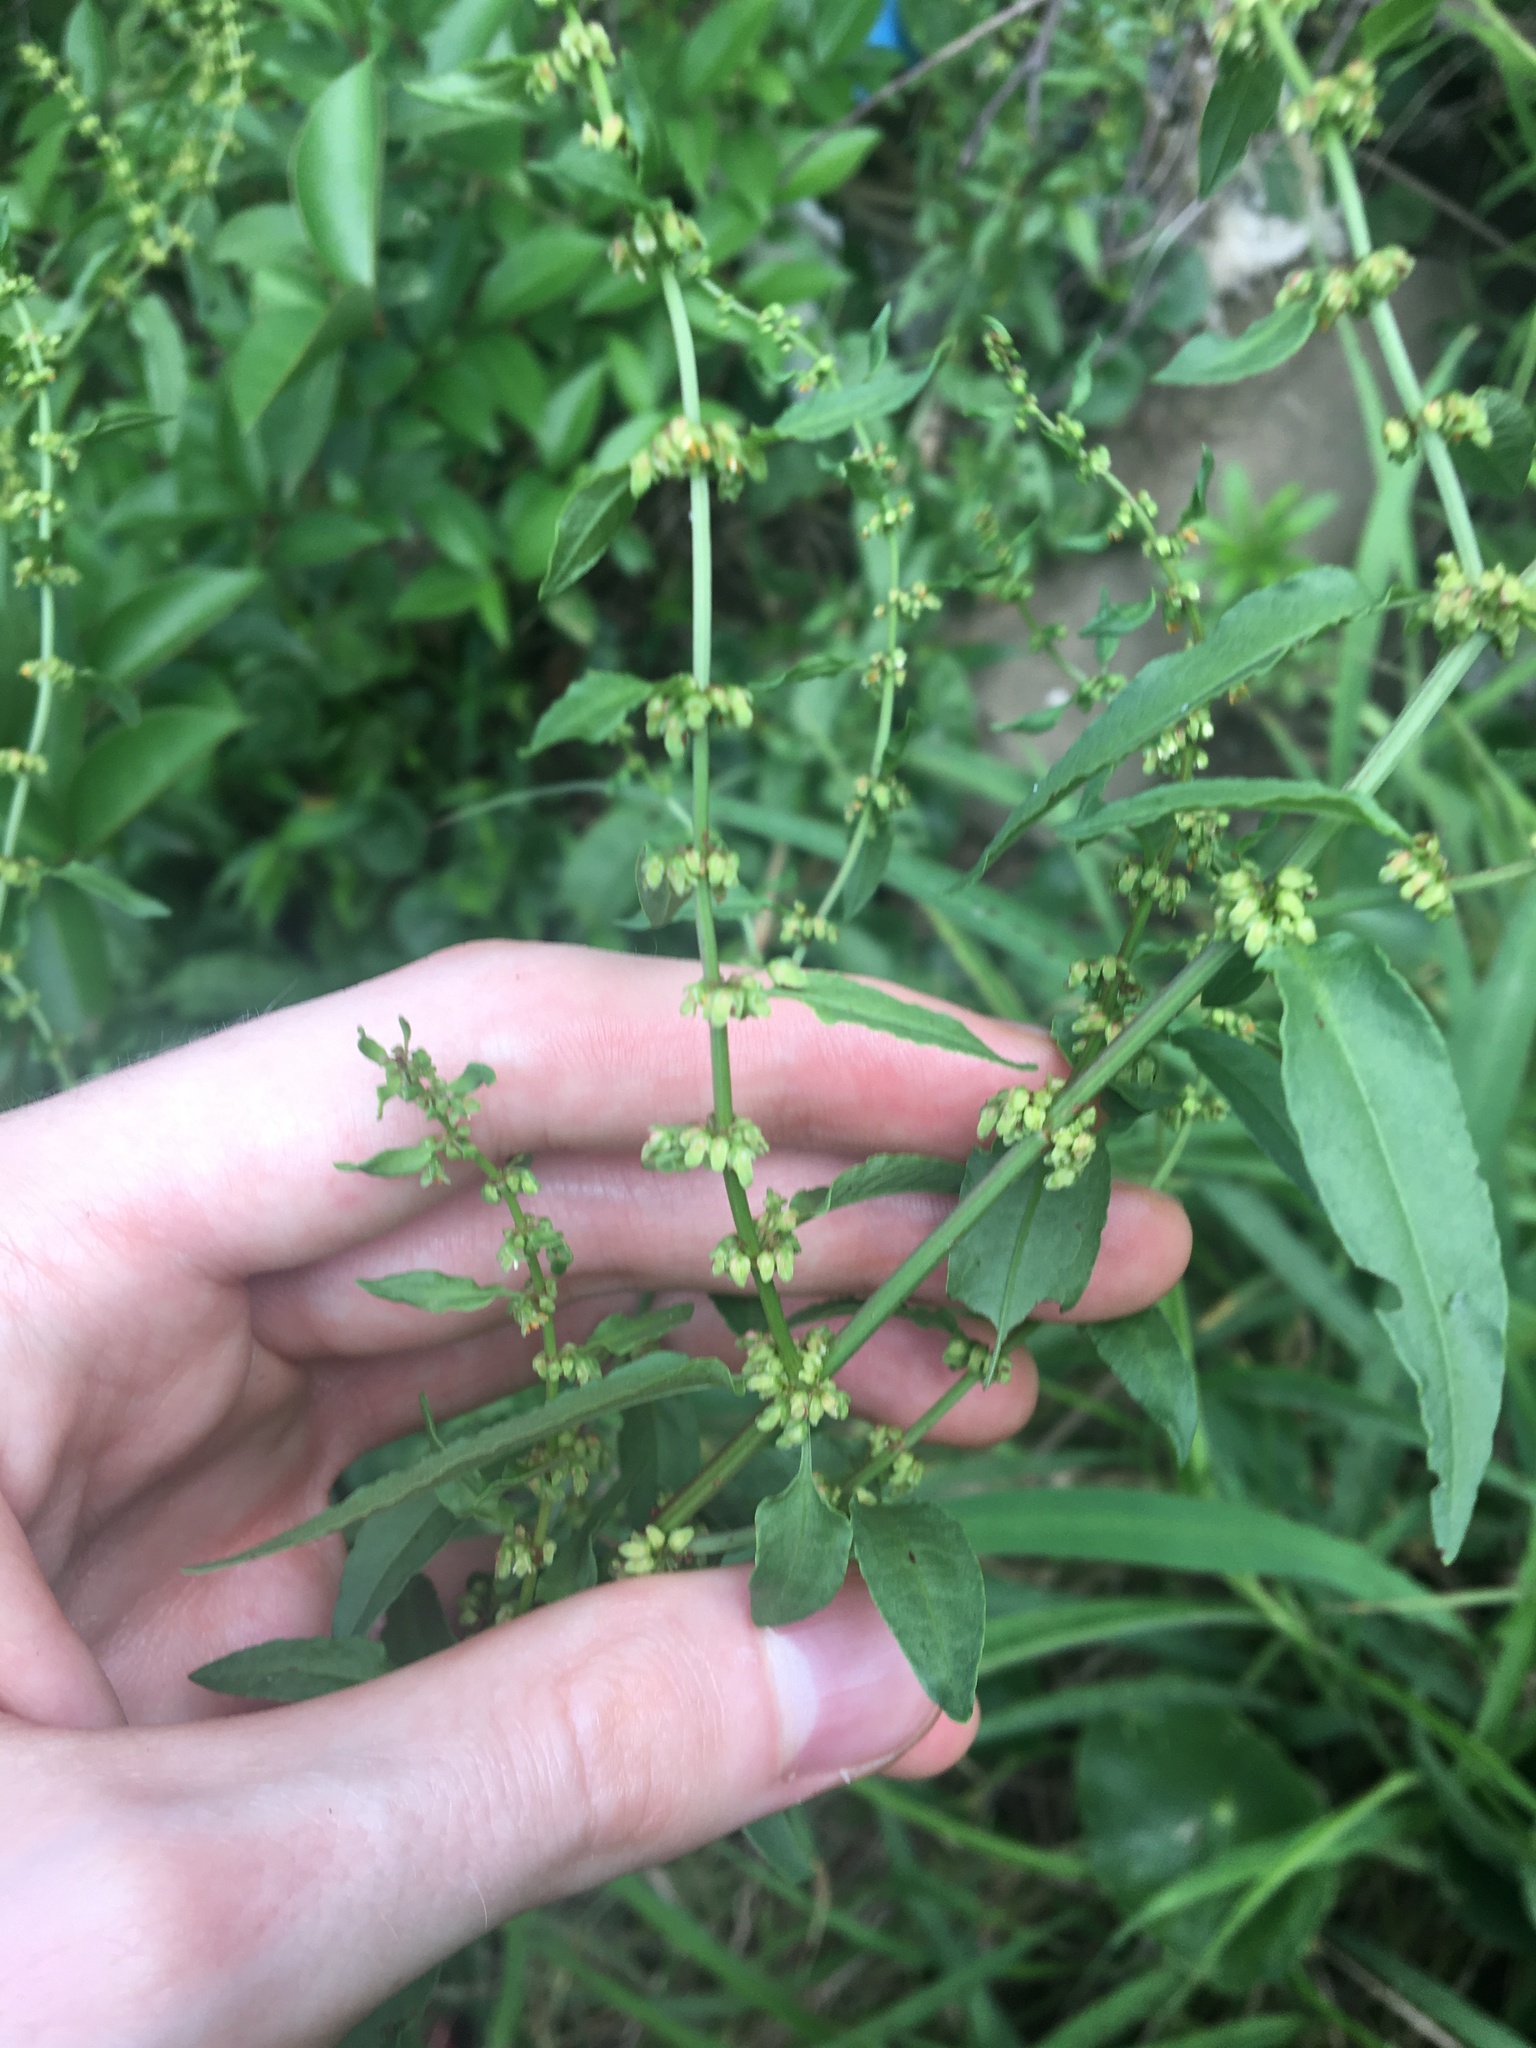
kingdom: Plantae
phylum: Tracheophyta
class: Magnoliopsida
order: Caryophyllales
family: Polygonaceae
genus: Rumex
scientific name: Rumex conglomeratus
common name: Clustered dock
